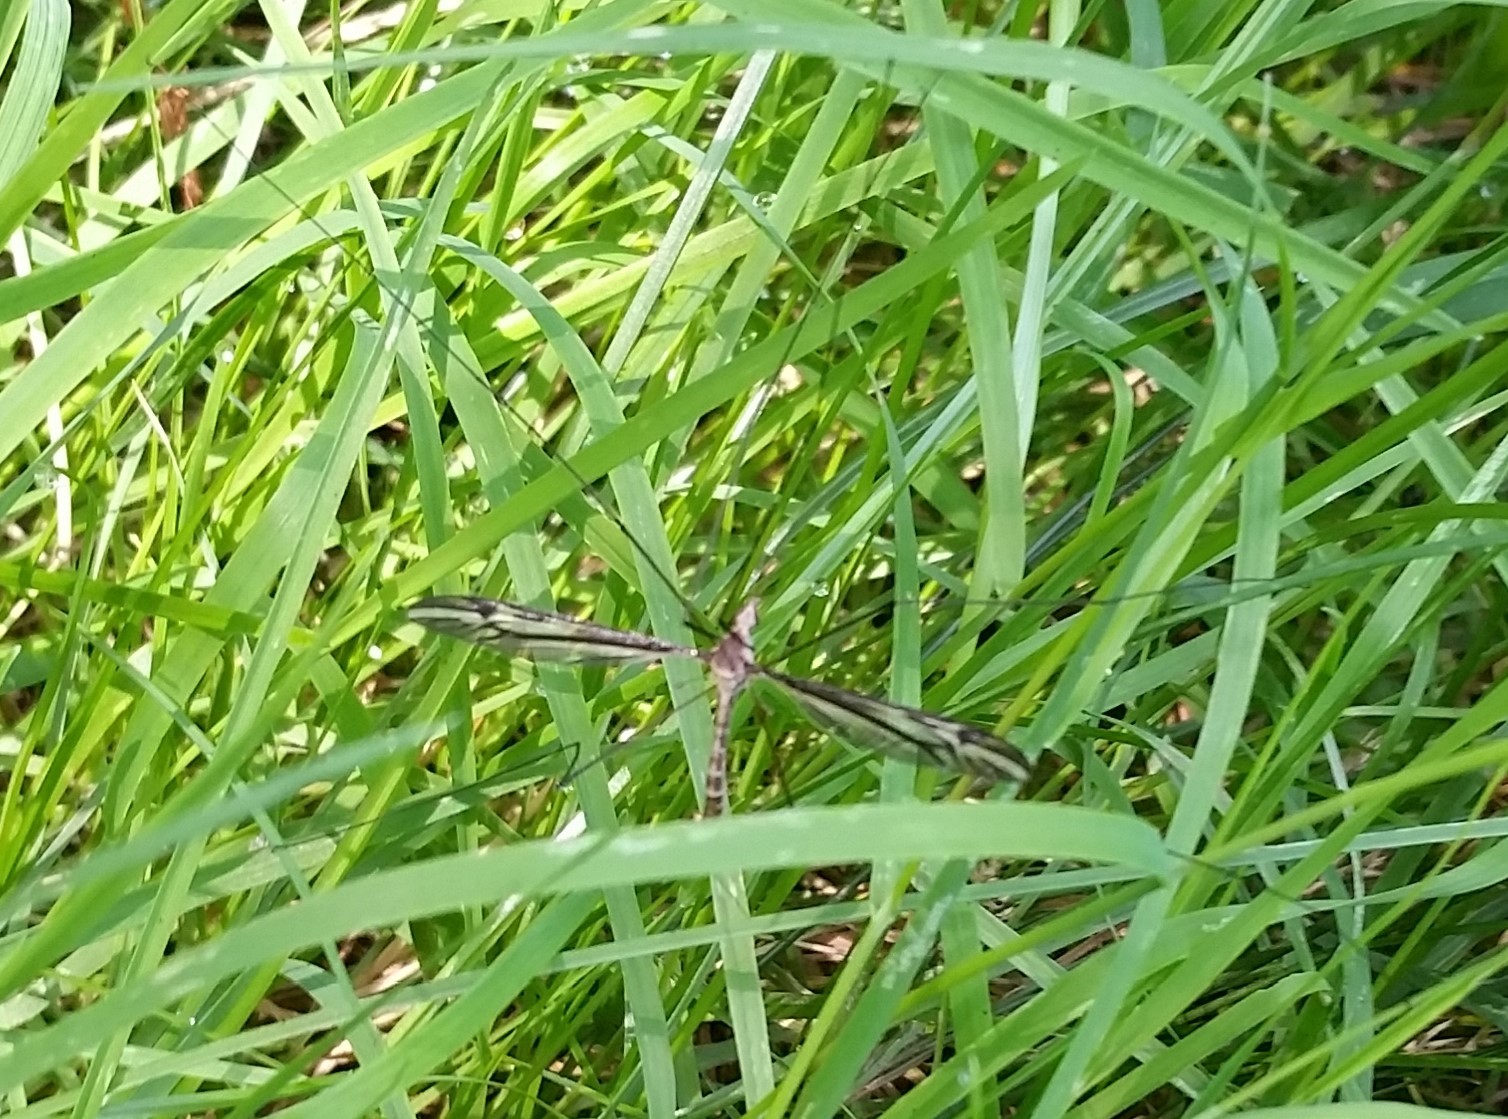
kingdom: Animalia
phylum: Arthropoda
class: Insecta
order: Diptera
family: Tipulidae
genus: Tipula
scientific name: Tipula furca
